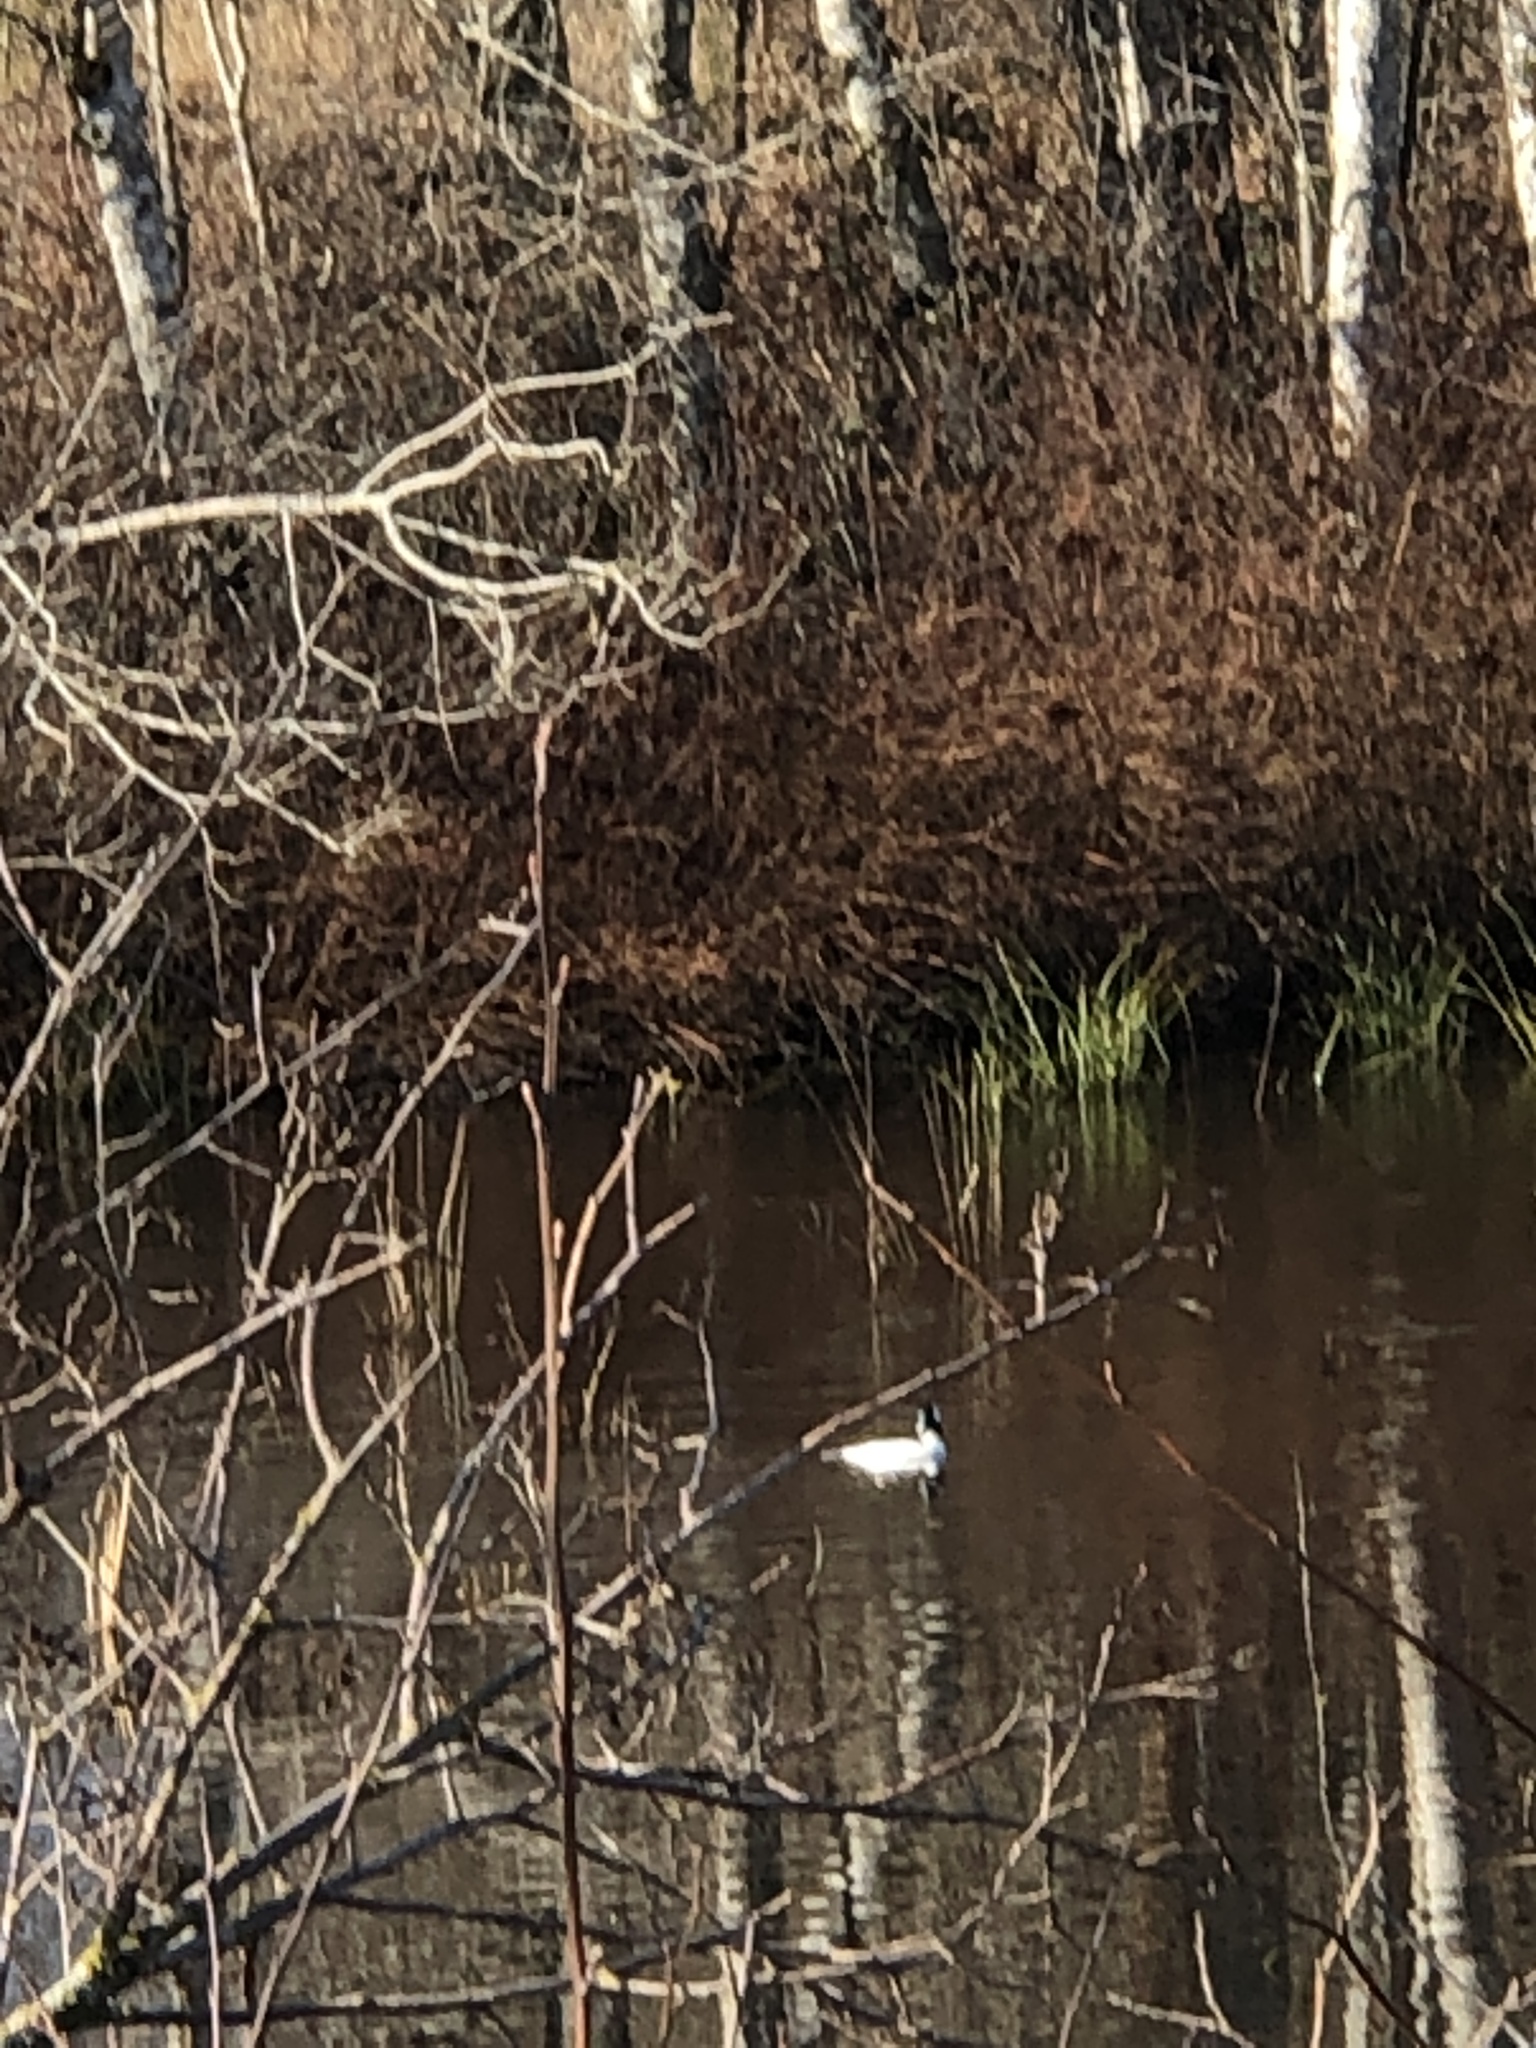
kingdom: Animalia
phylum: Chordata
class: Aves
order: Anseriformes
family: Anatidae
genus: Bucephala
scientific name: Bucephala albeola
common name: Bufflehead
